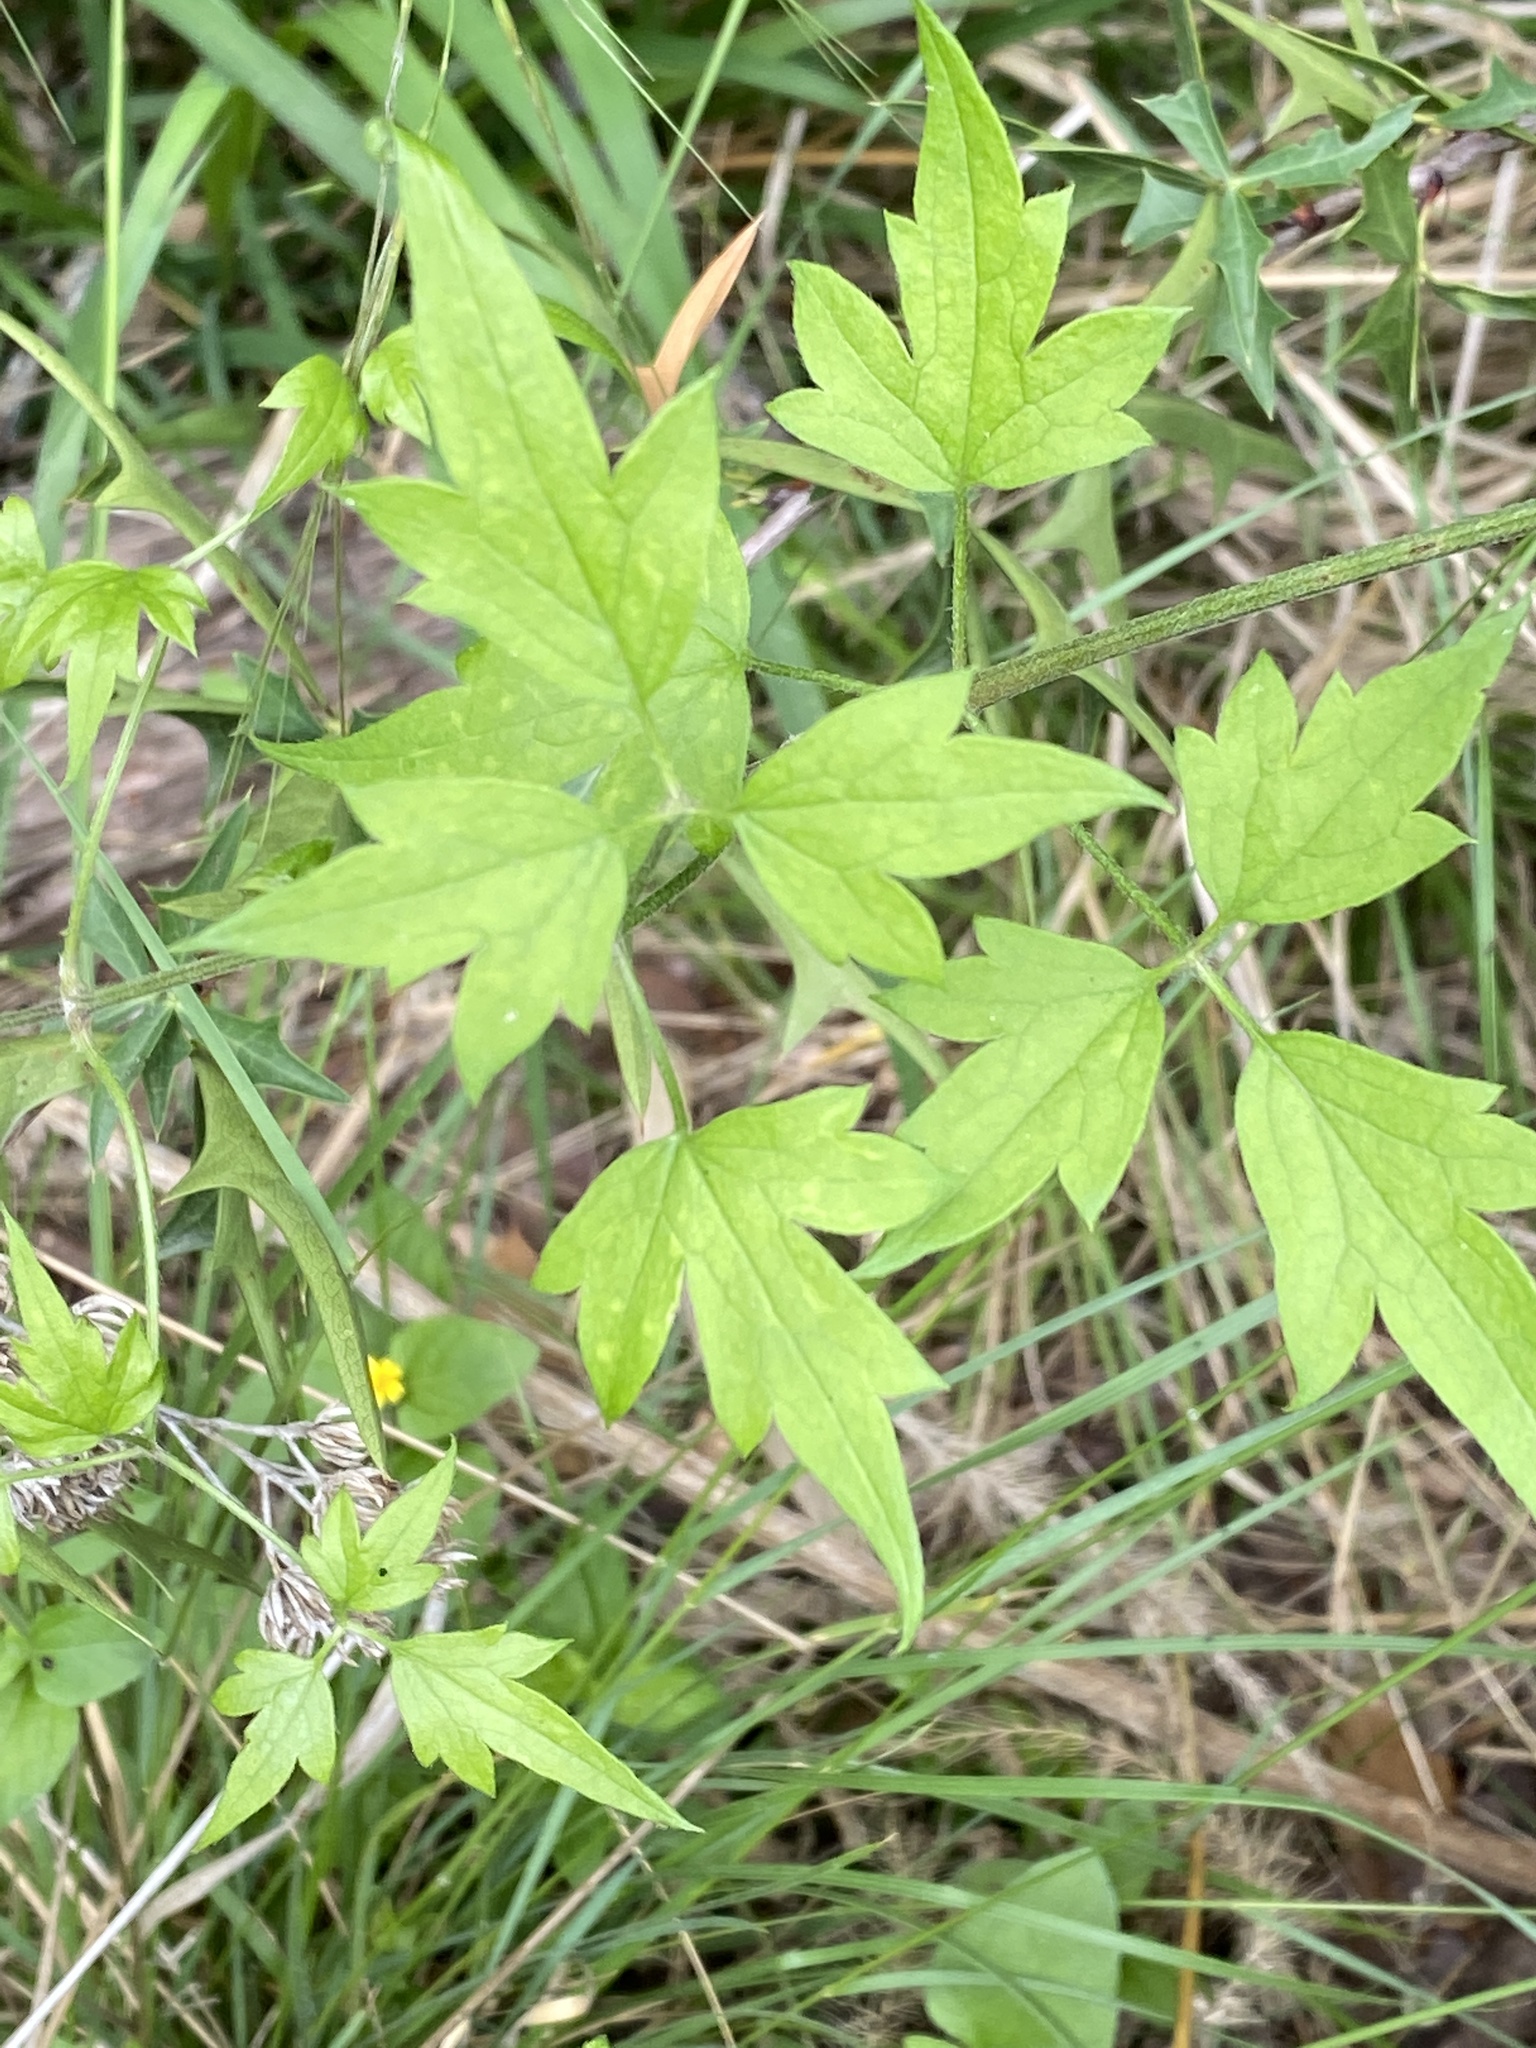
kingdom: Plantae
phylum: Tracheophyta
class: Magnoliopsida
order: Ranunculales
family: Ranunculaceae
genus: Clematis
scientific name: Clematis drummondii
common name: Texas virgin's bower
